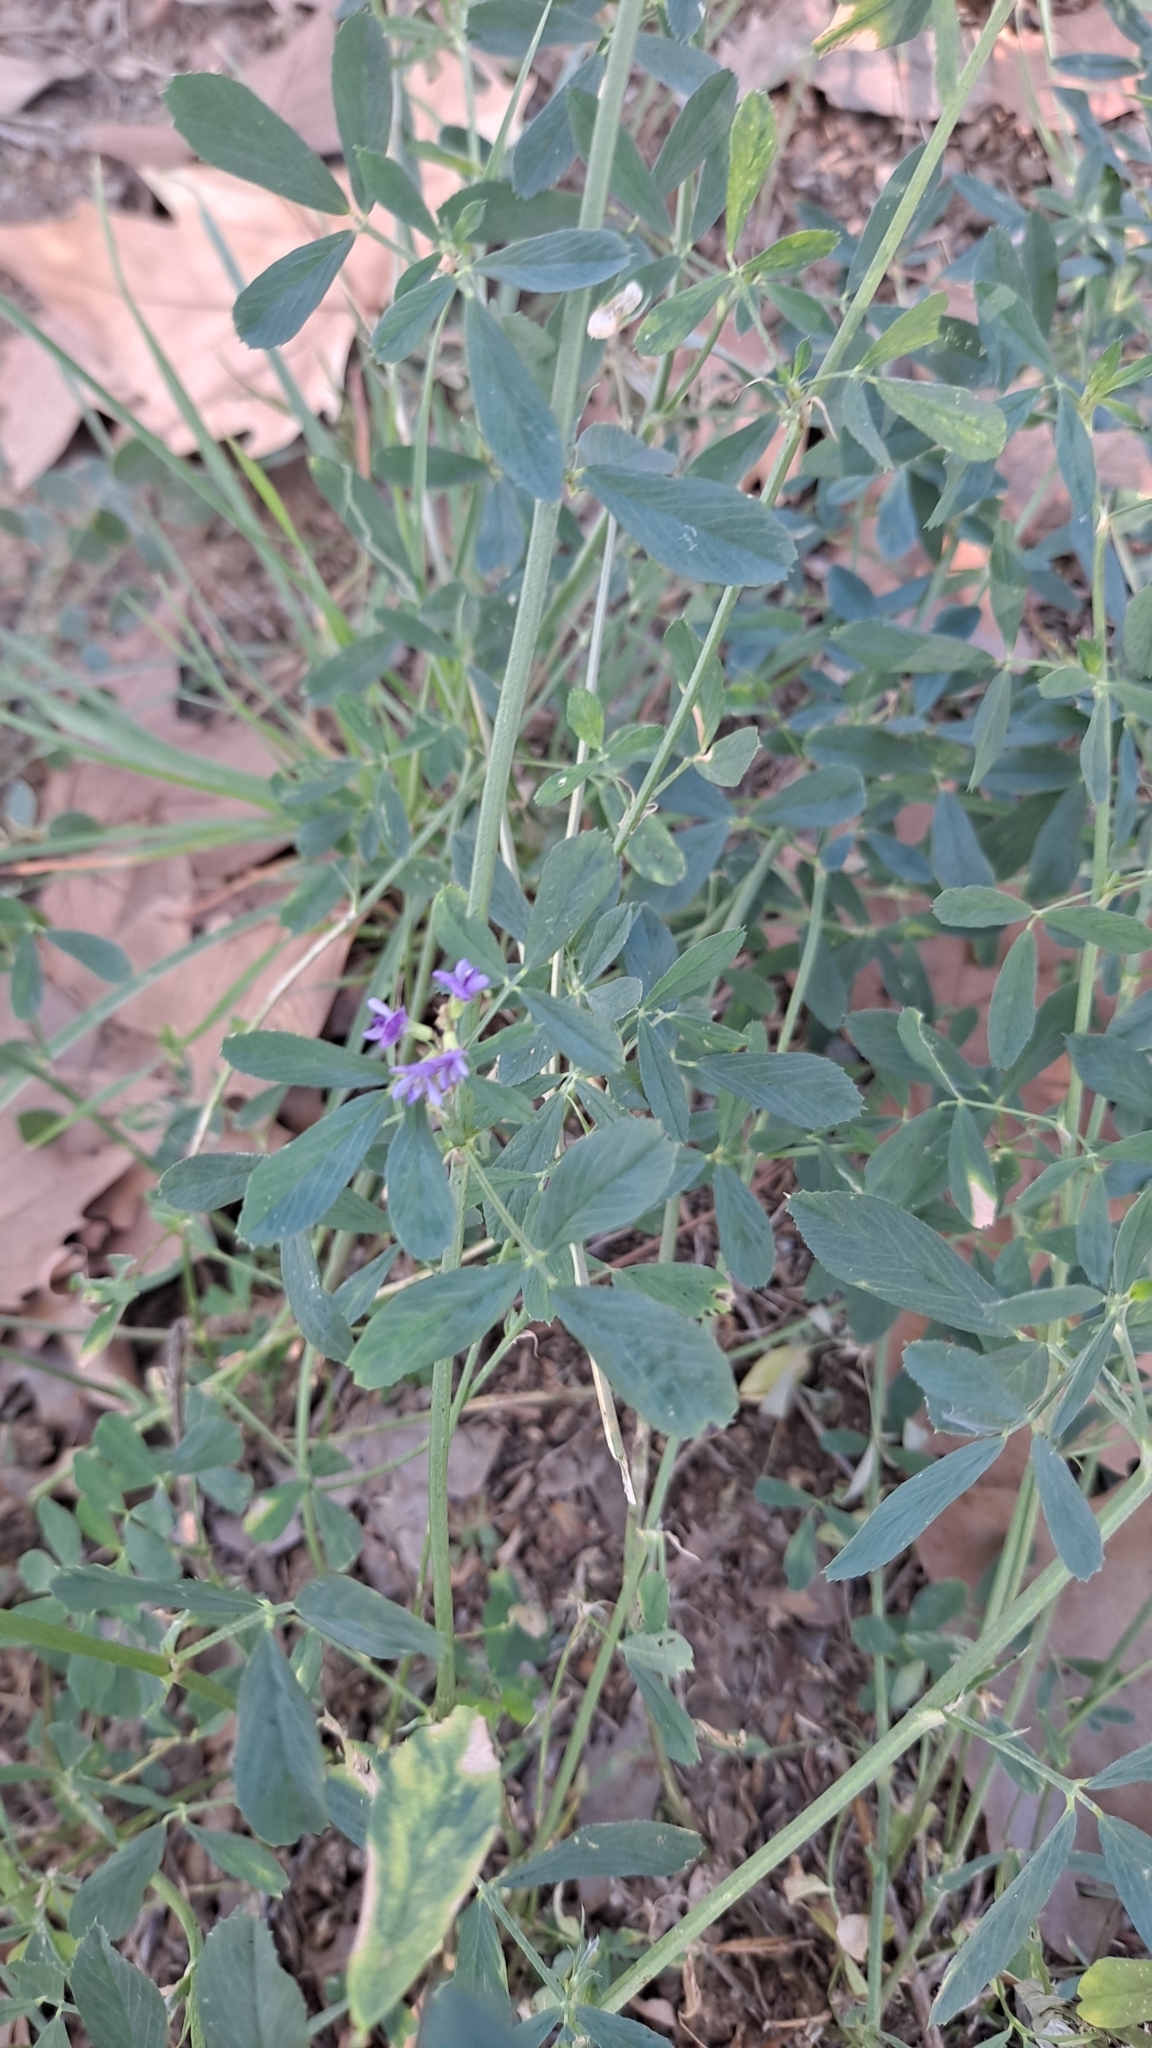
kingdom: Plantae
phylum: Tracheophyta
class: Magnoliopsida
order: Fabales
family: Fabaceae
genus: Medicago
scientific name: Medicago sativa
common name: Alfalfa
